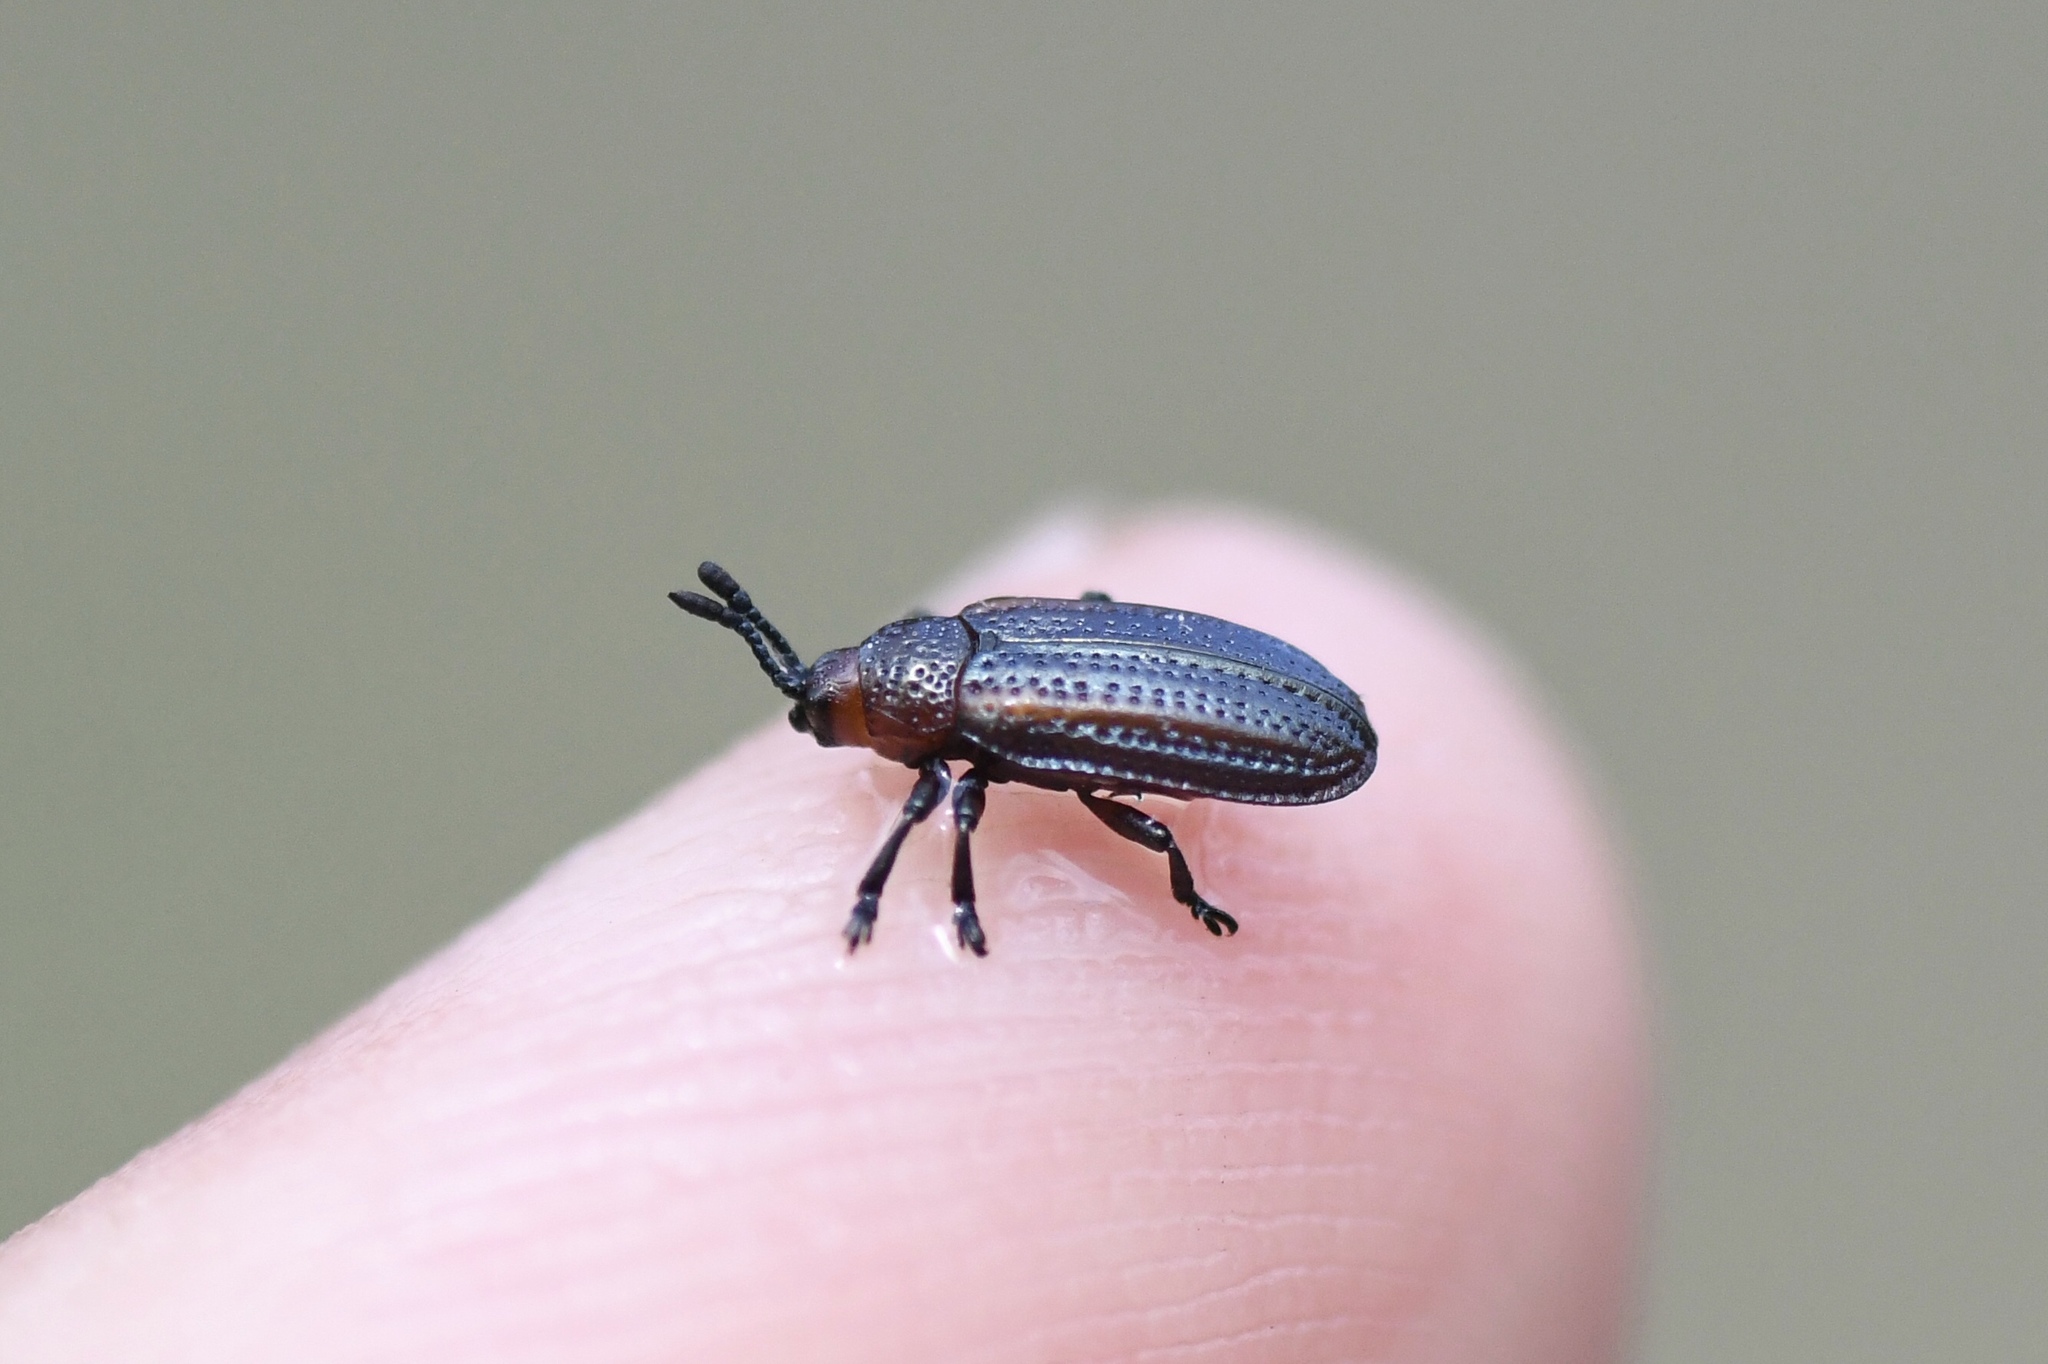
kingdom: Animalia
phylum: Arthropoda
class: Insecta
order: Coleoptera
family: Chrysomelidae
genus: Microrhopala
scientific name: Microrhopala vittata
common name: Goldenrod leaf miner beetle
